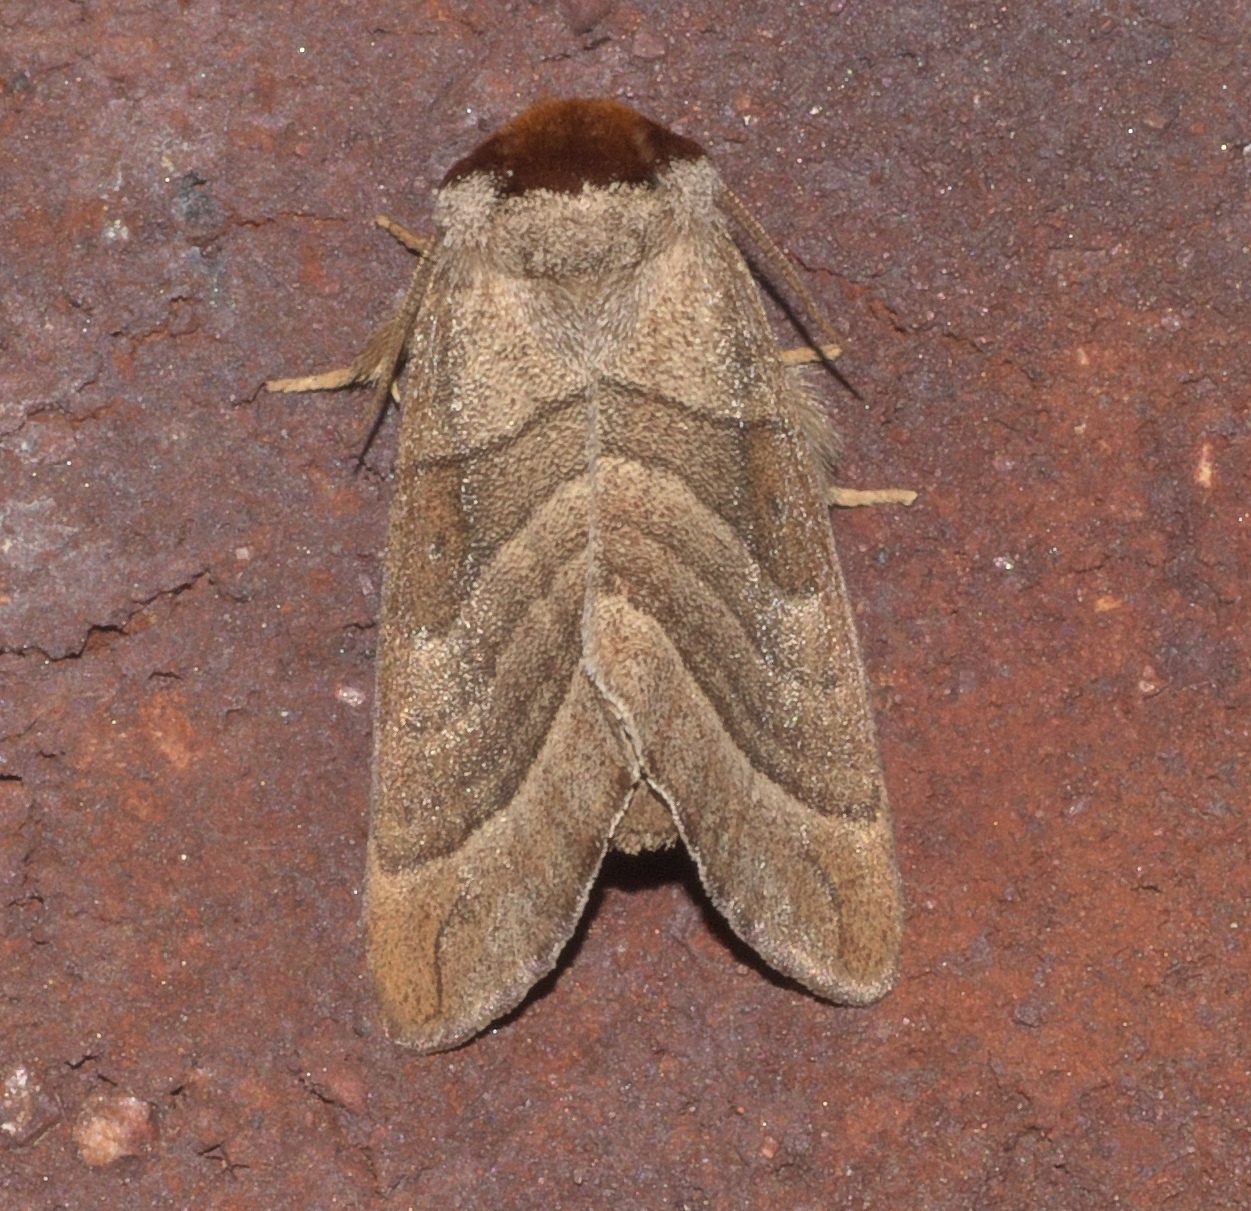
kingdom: Animalia
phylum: Arthropoda
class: Insecta
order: Lepidoptera
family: Notodontidae
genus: Datana
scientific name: Datana integerrima
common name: Walnut caterpillar
